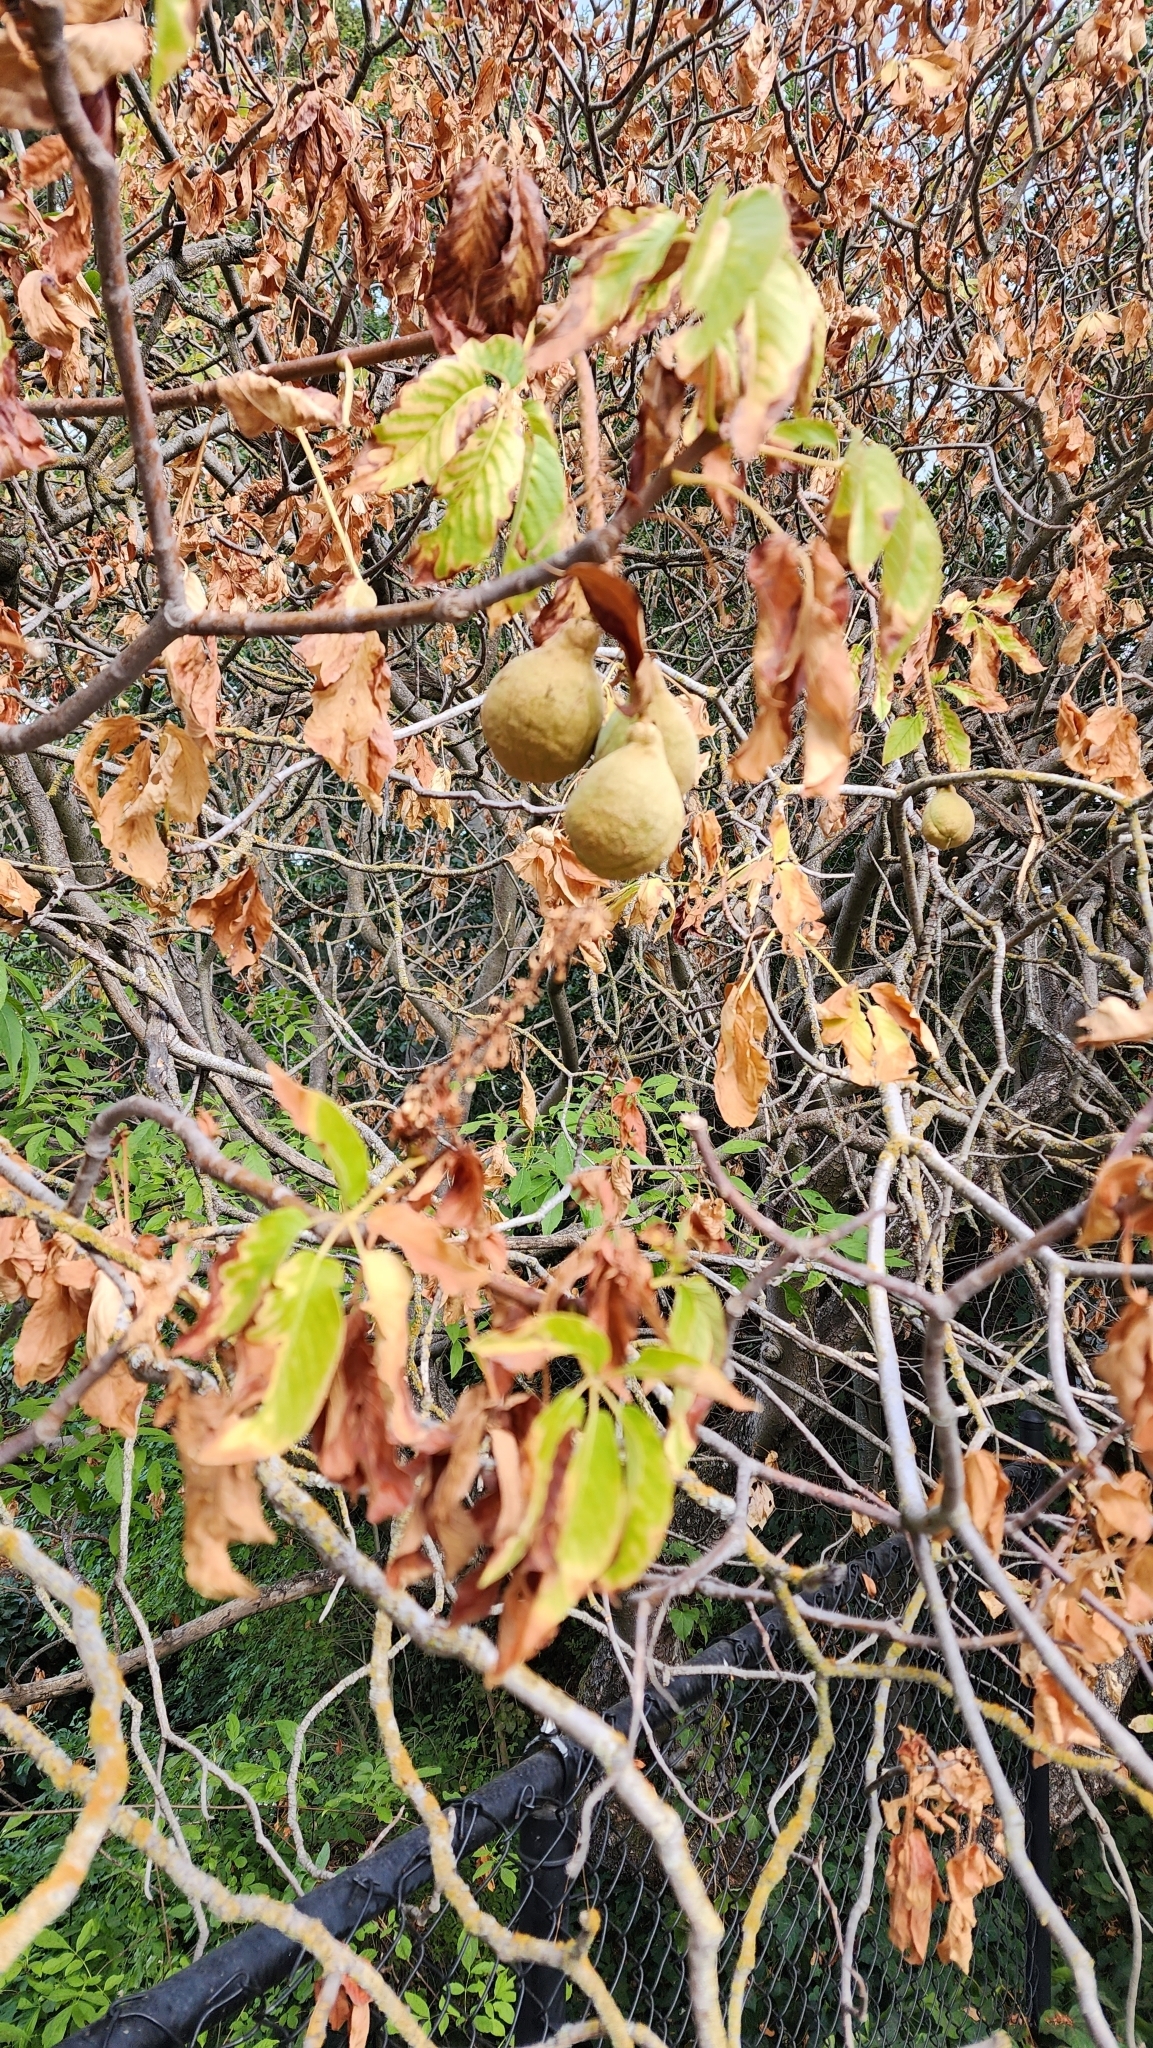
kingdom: Plantae
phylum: Tracheophyta
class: Magnoliopsida
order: Sapindales
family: Sapindaceae
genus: Aesculus
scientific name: Aesculus californica
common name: California buckeye
